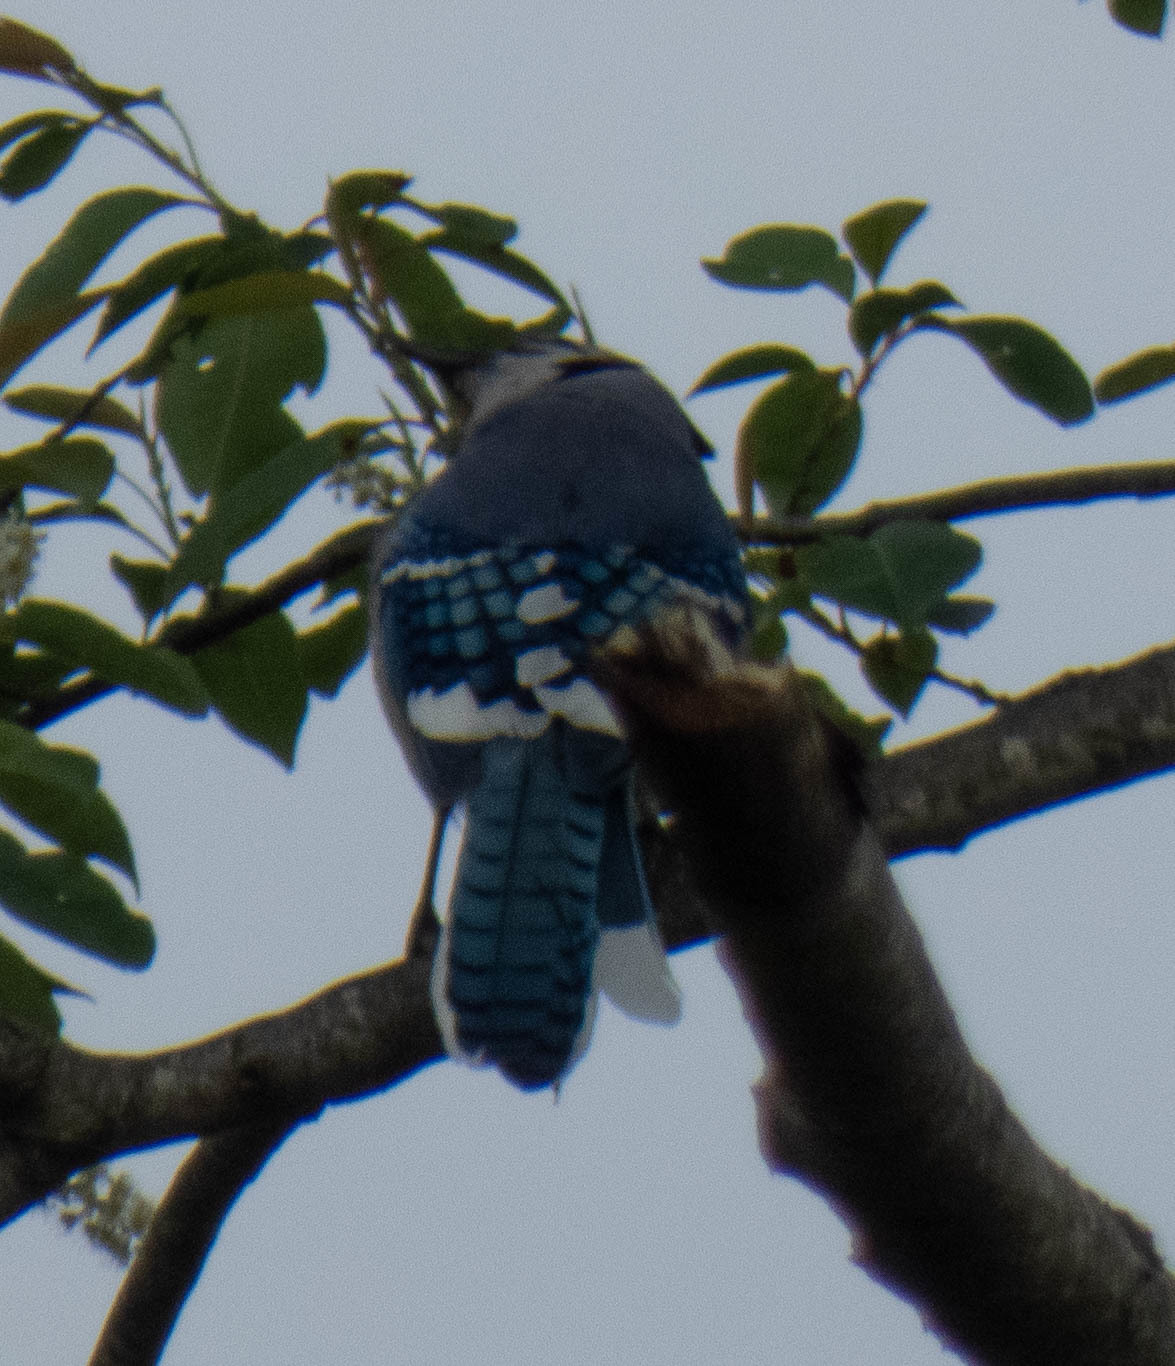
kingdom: Animalia
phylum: Chordata
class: Aves
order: Passeriformes
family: Corvidae
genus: Cyanocitta
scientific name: Cyanocitta cristata
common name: Blue jay
